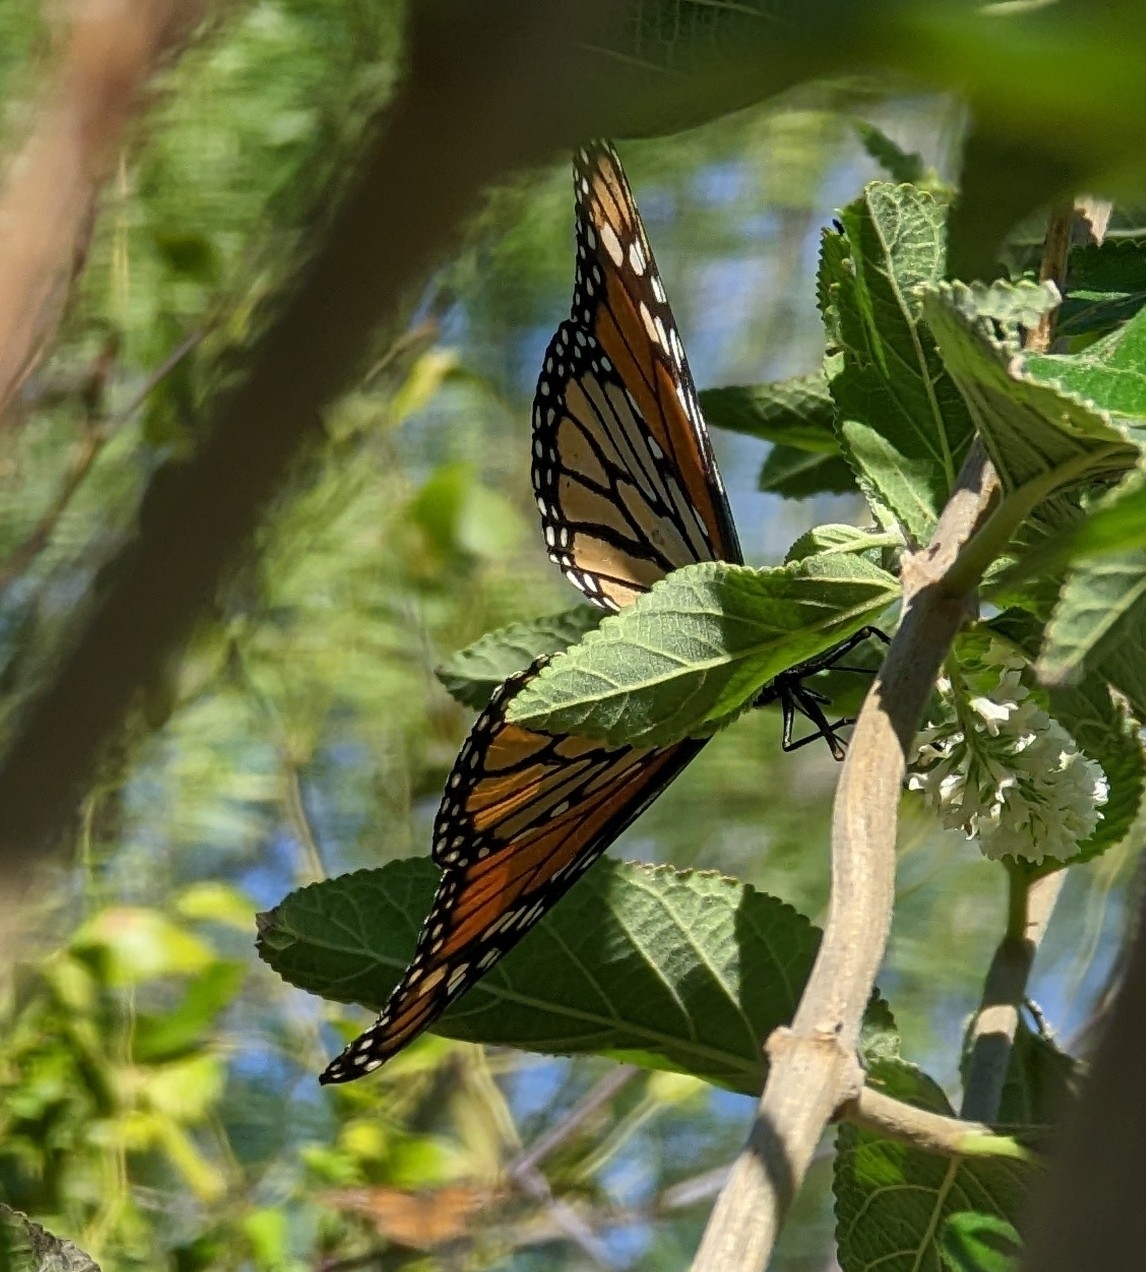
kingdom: Animalia
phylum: Arthropoda
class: Insecta
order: Lepidoptera
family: Nymphalidae
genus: Danaus
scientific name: Danaus plexippus
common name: Monarch
